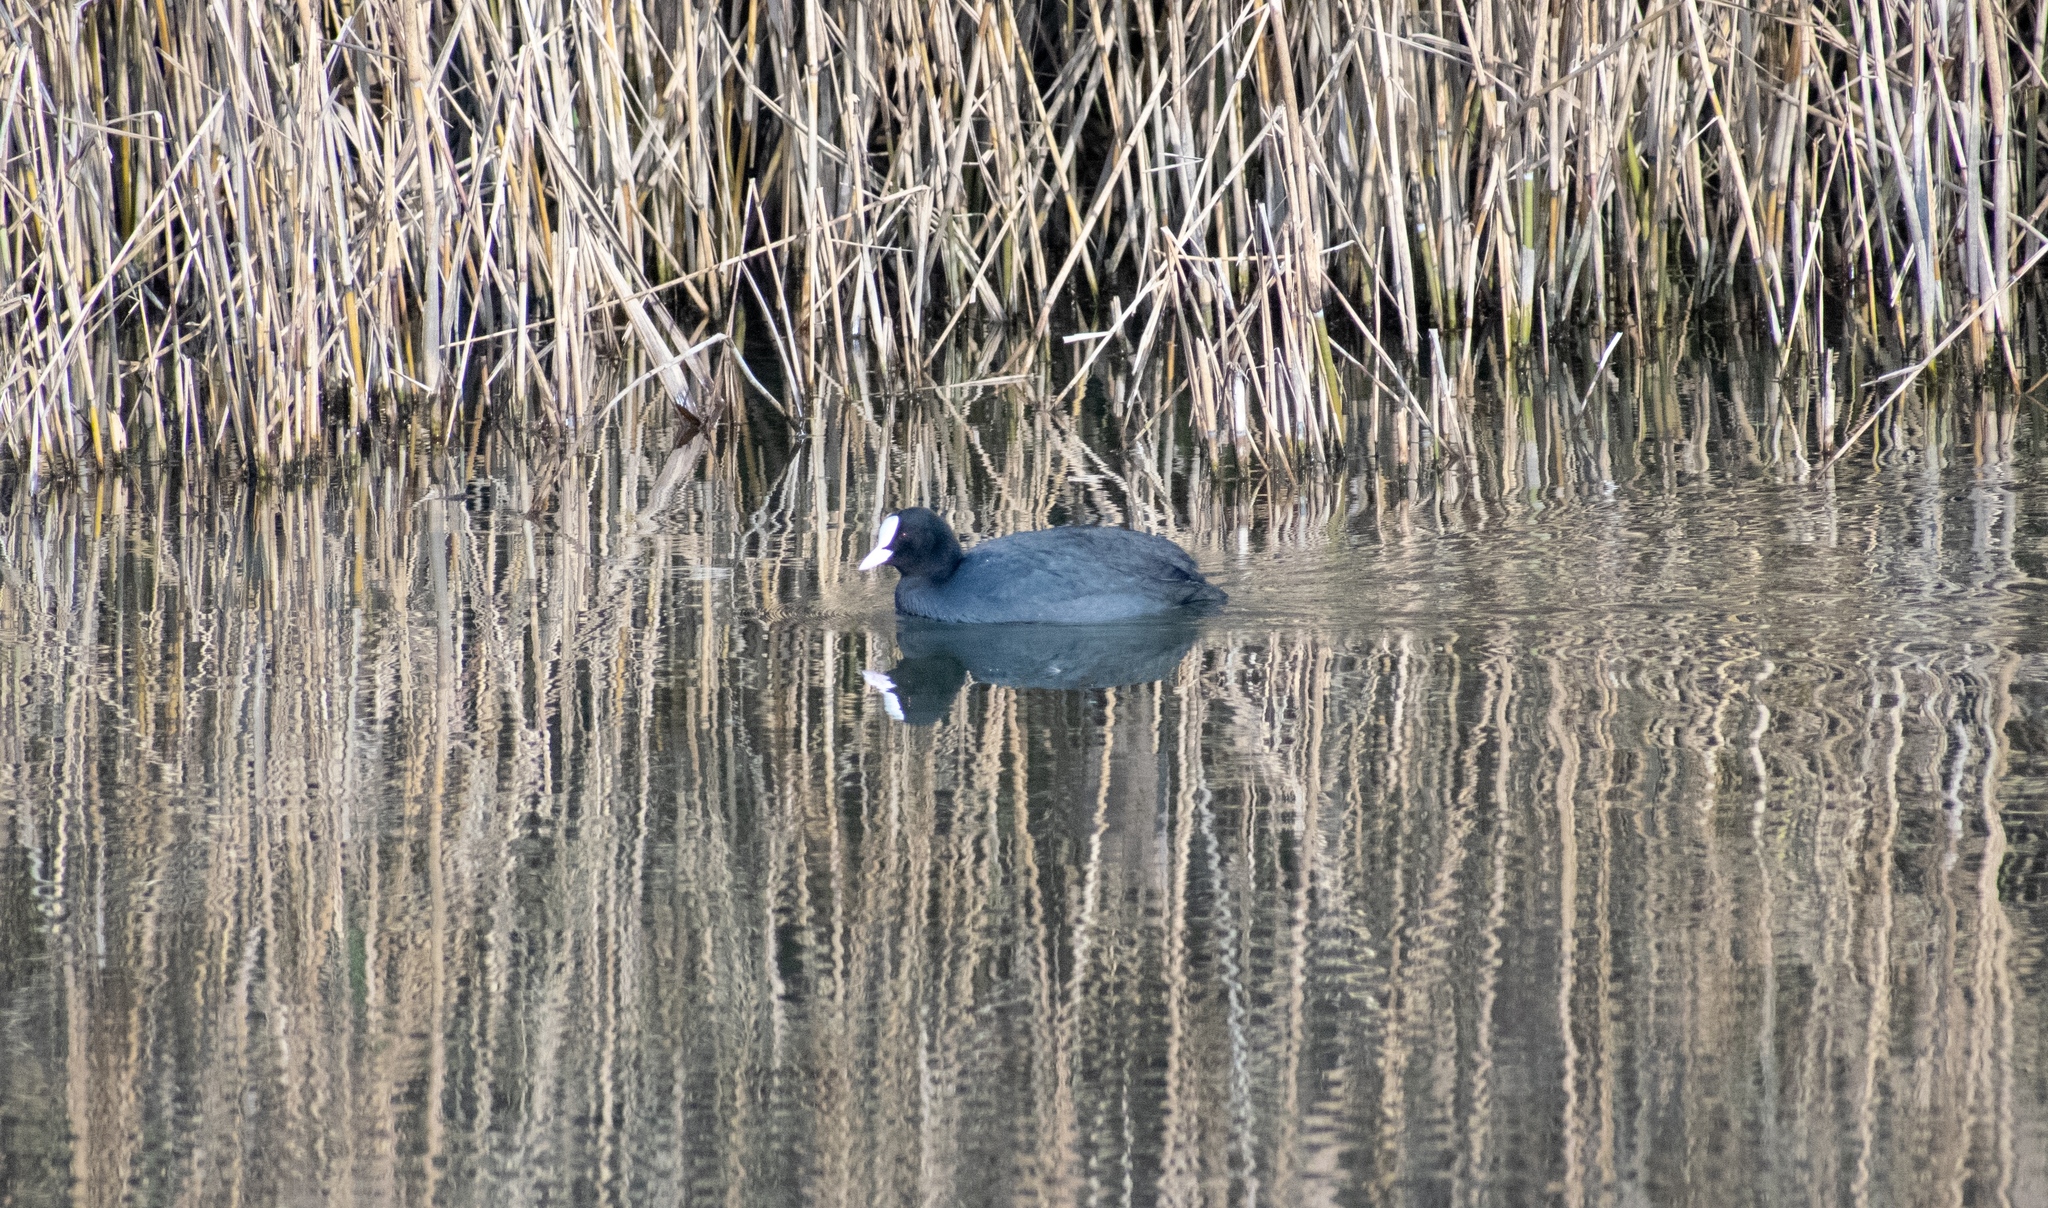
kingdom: Animalia
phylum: Chordata
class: Aves
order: Gruiformes
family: Rallidae
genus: Fulica
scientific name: Fulica atra
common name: Eurasian coot
